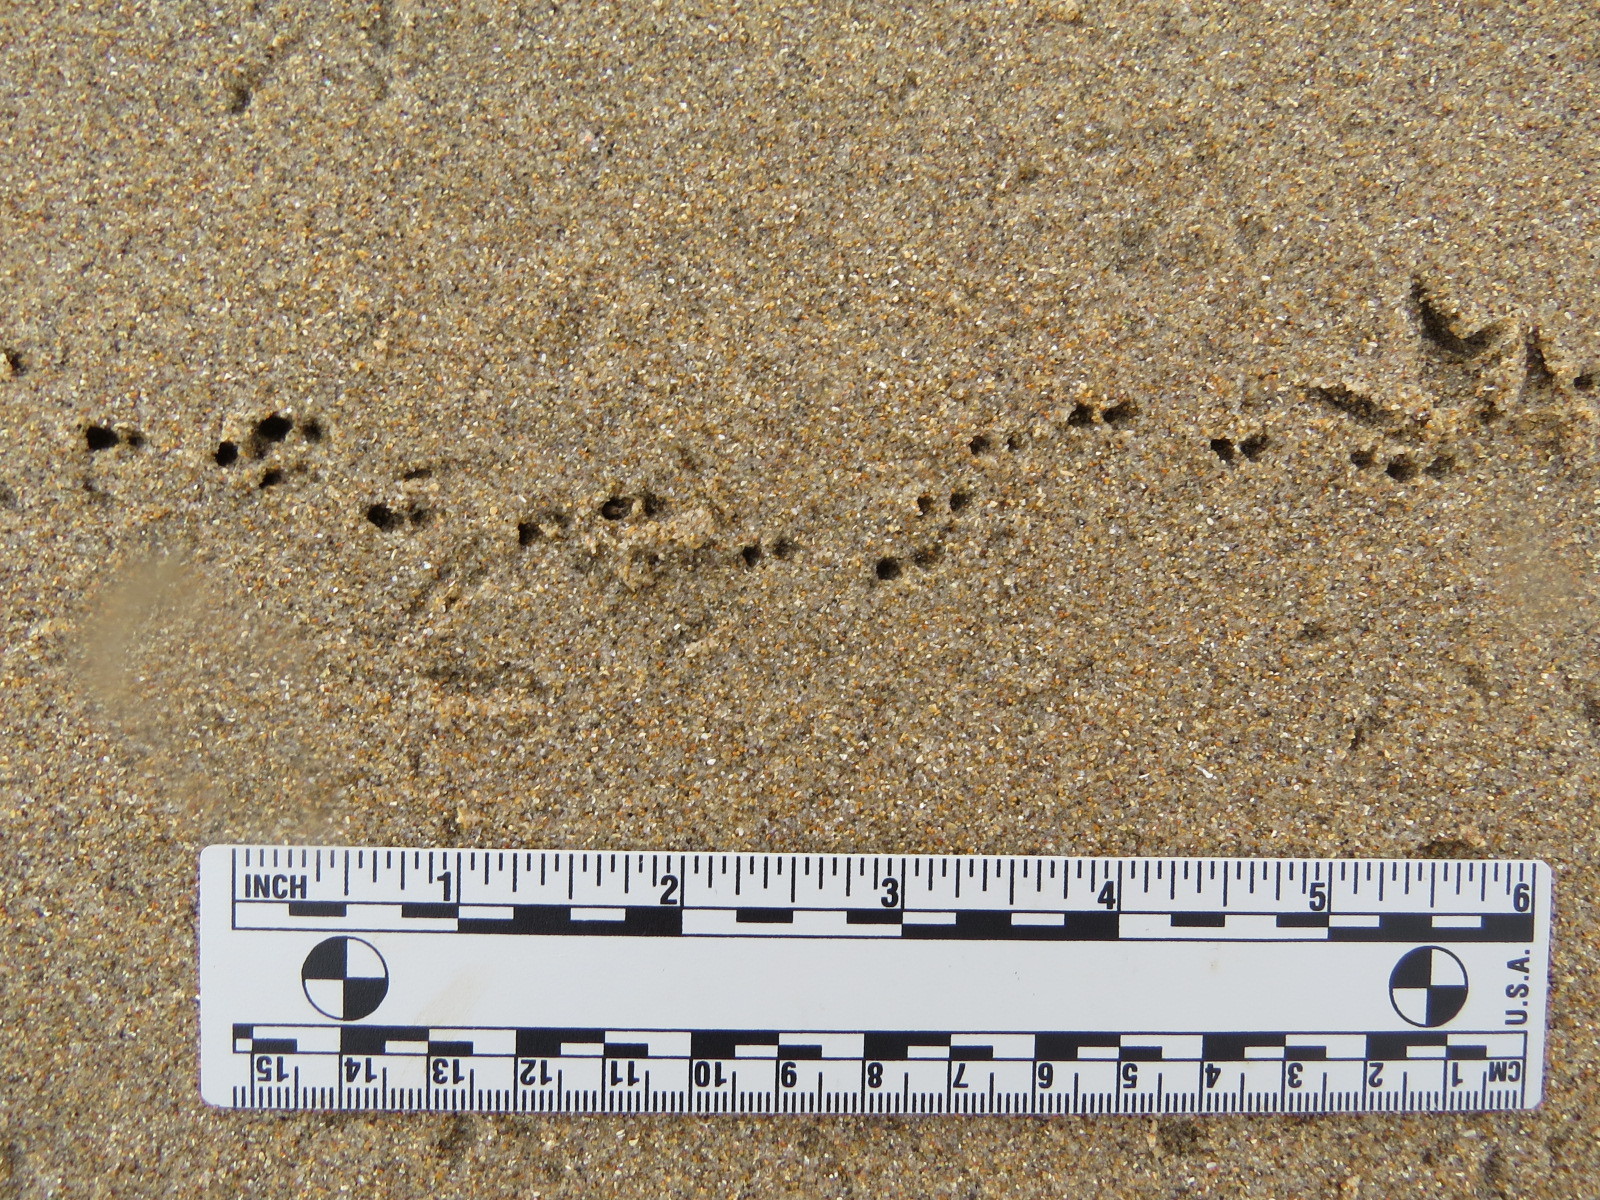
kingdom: Animalia
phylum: Chordata
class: Aves
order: Charadriiformes
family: Scolopacidae
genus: Calidris
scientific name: Calidris alba
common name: Sanderling
